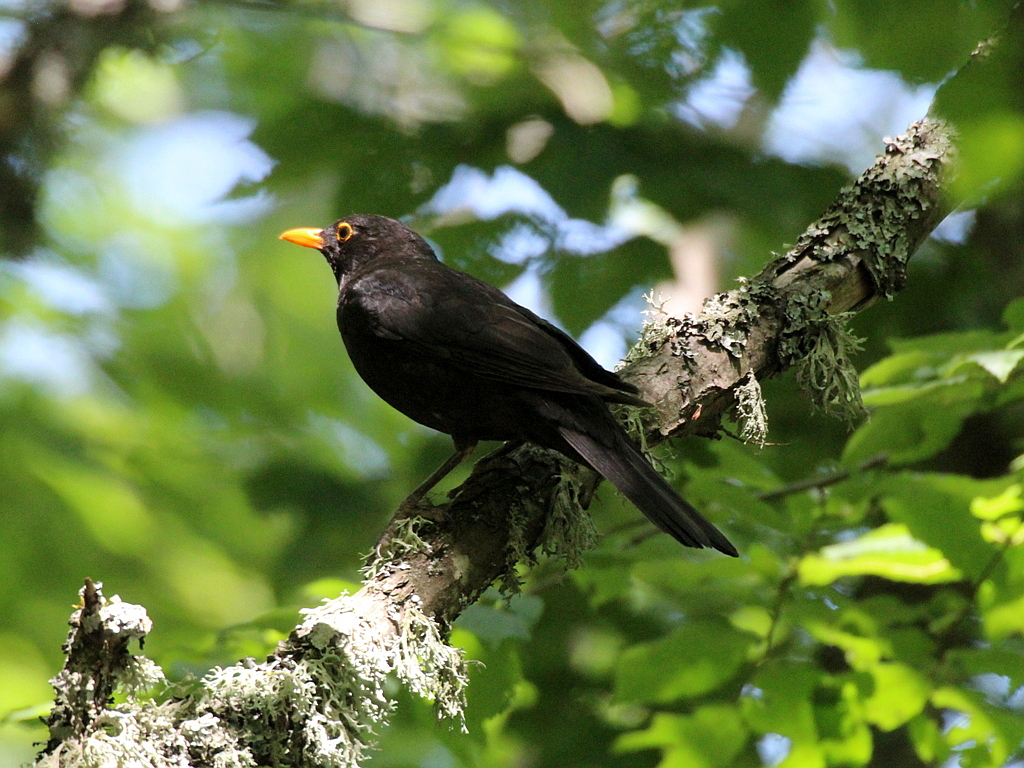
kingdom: Animalia
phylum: Chordata
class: Aves
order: Passeriformes
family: Turdidae
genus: Turdus
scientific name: Turdus merula
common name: Common blackbird
